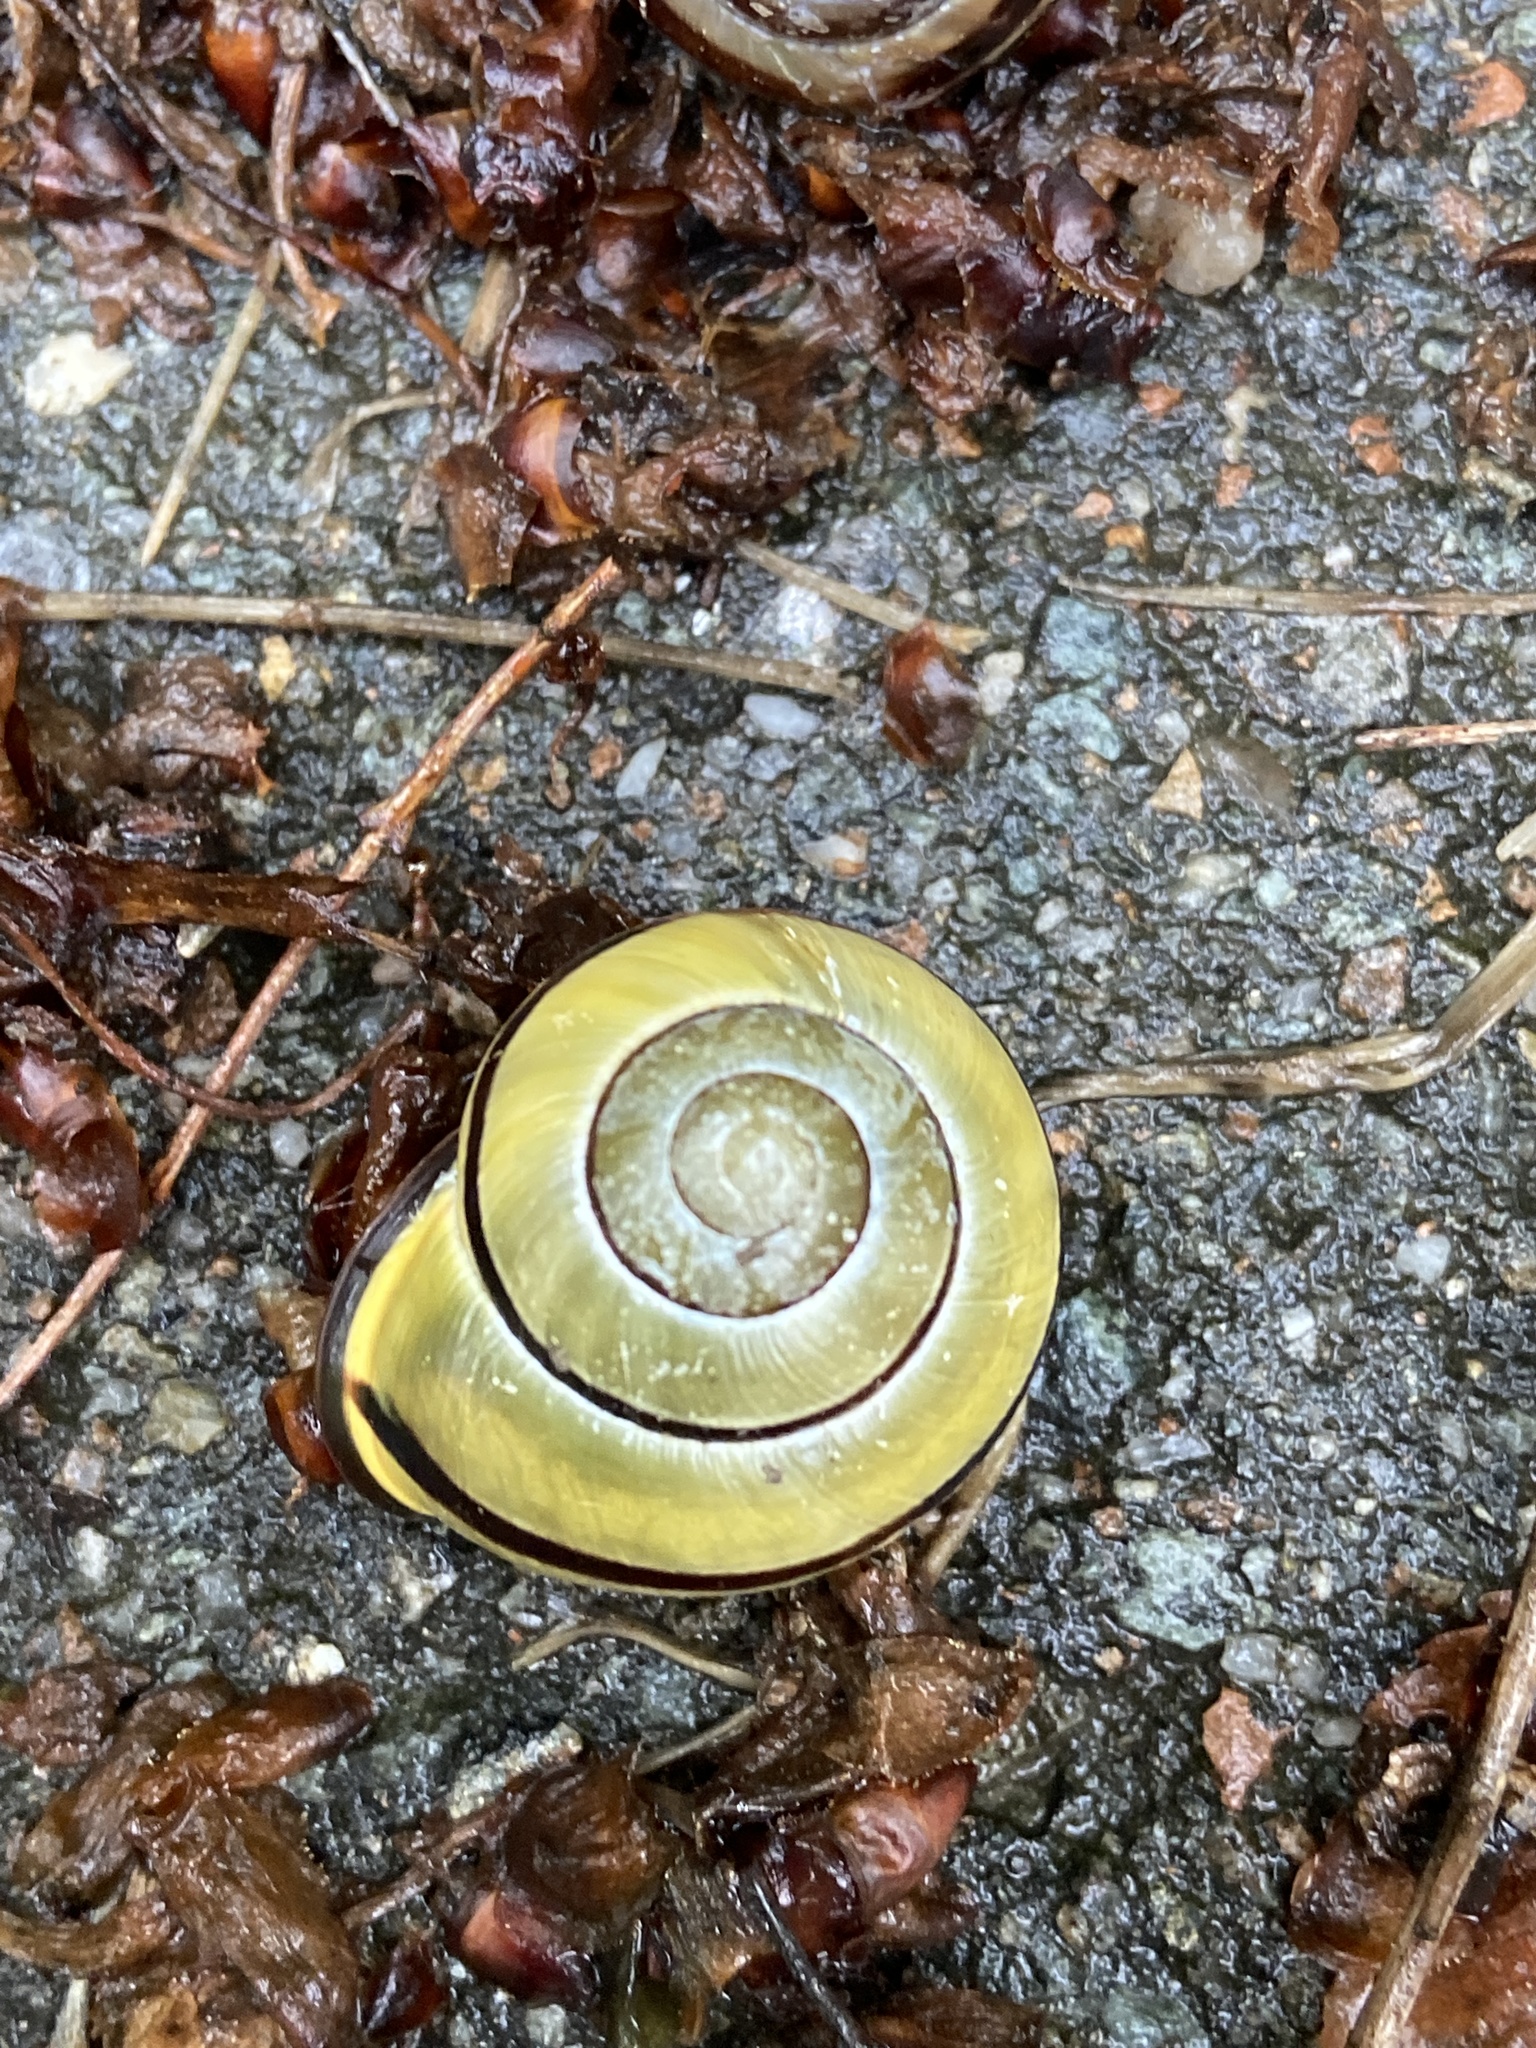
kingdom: Animalia
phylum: Mollusca
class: Gastropoda
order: Stylommatophora
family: Helicidae
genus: Cepaea
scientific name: Cepaea nemoralis
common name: Grovesnail
